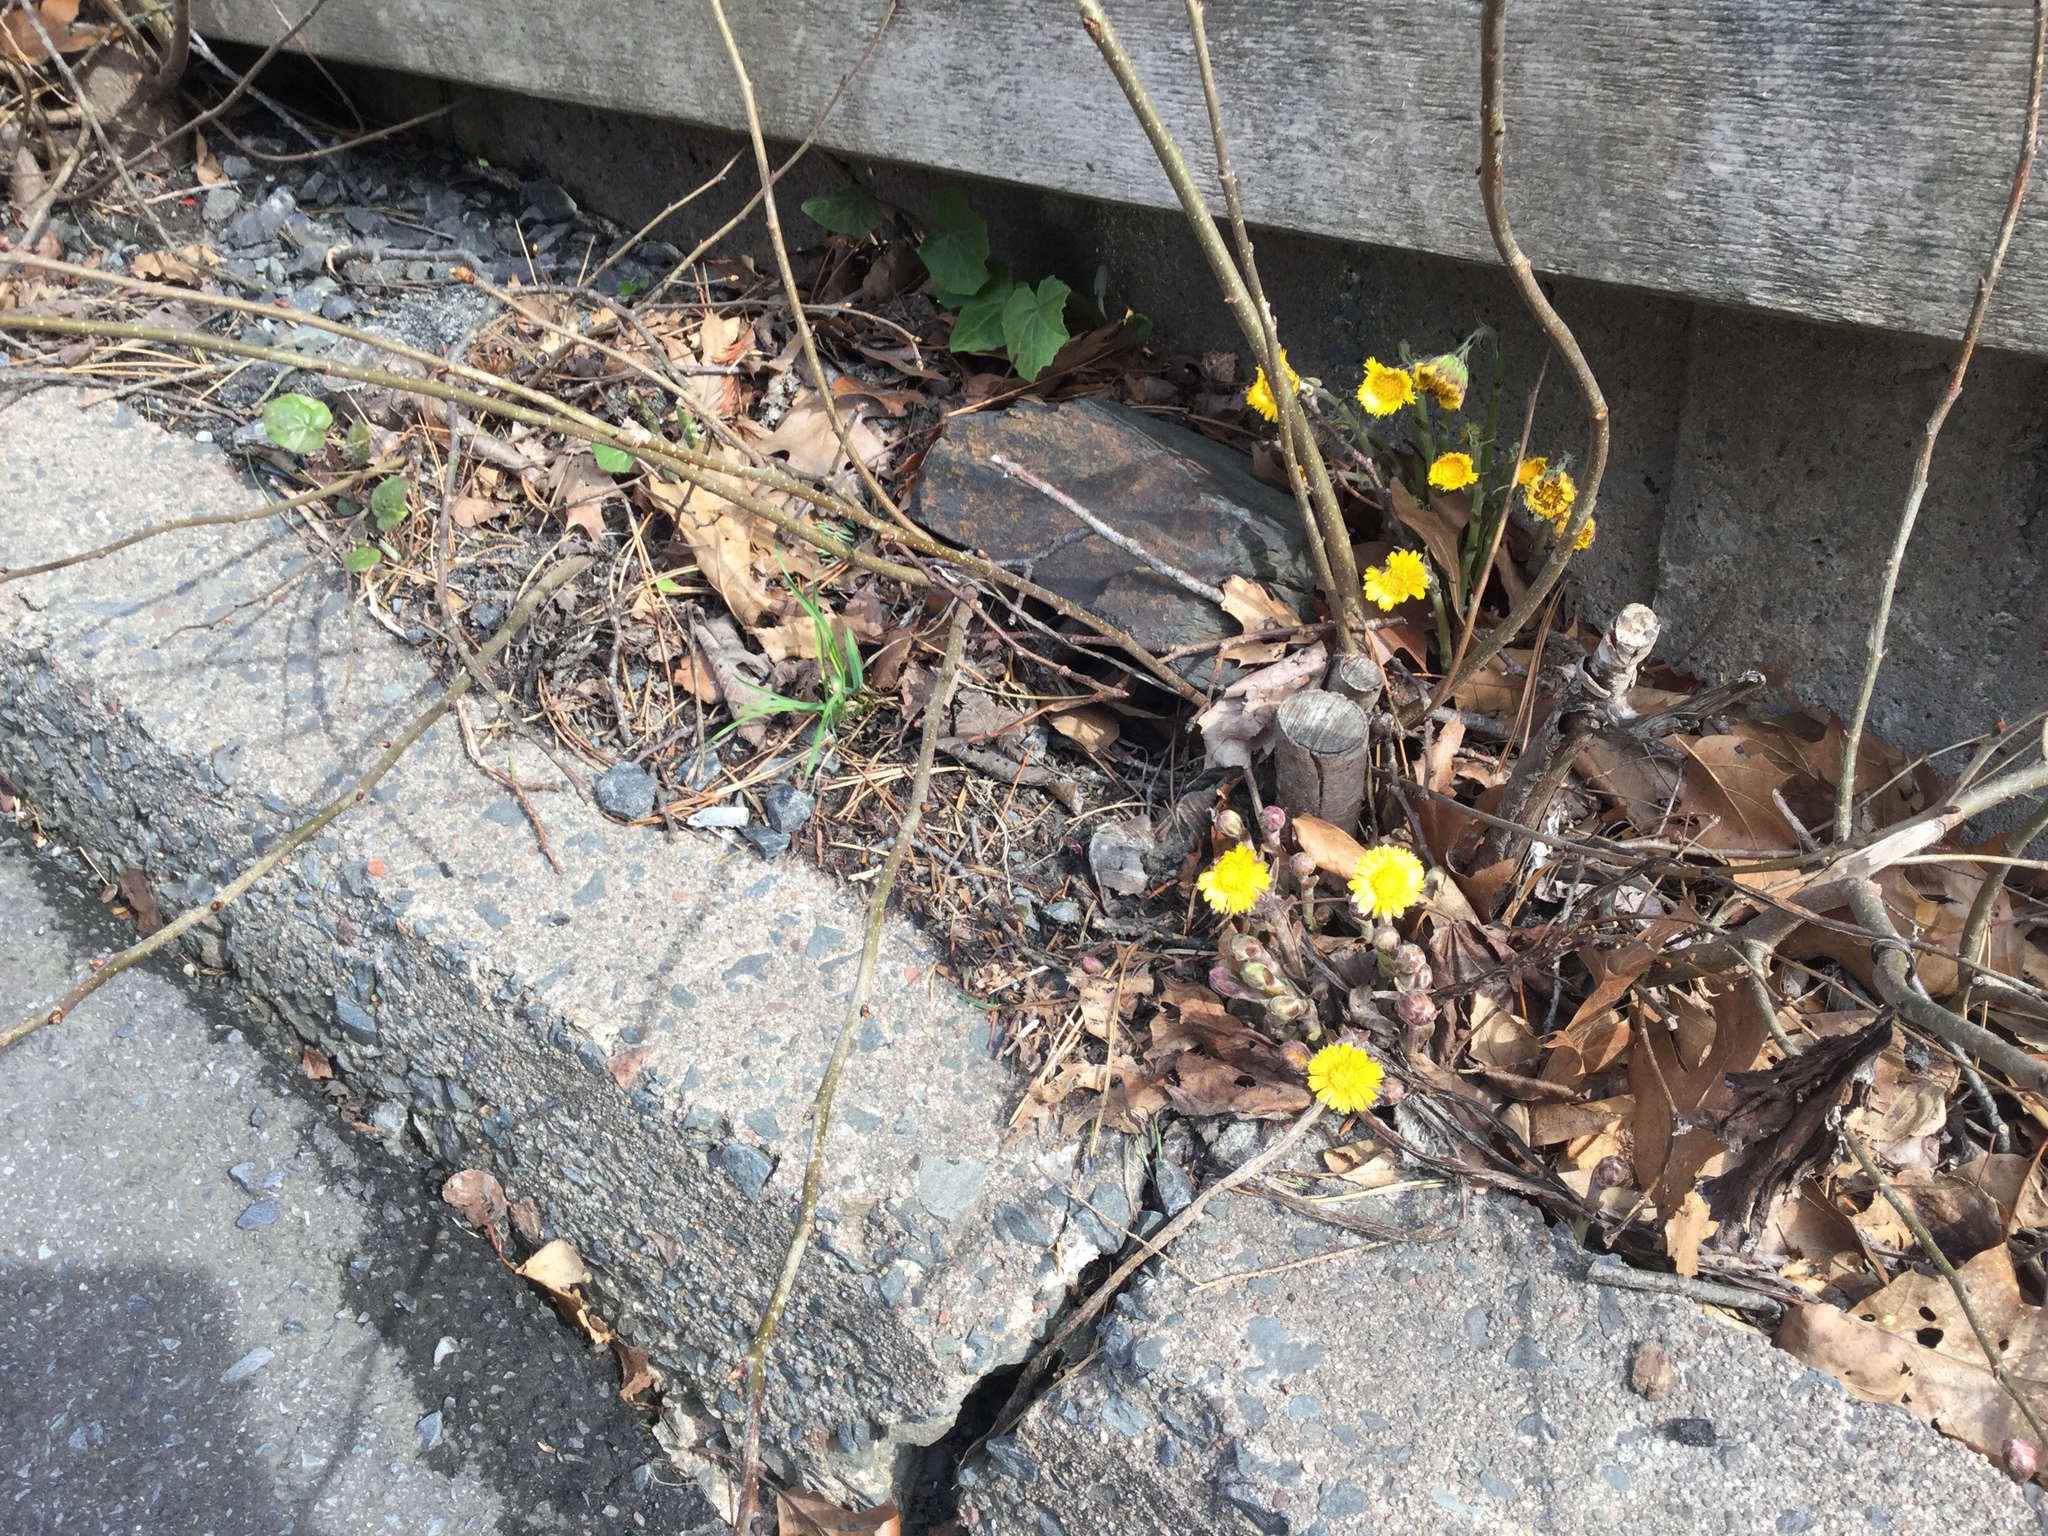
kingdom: Plantae
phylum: Tracheophyta
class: Magnoliopsida
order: Asterales
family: Asteraceae
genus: Tussilago
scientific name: Tussilago farfara
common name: Coltsfoot
